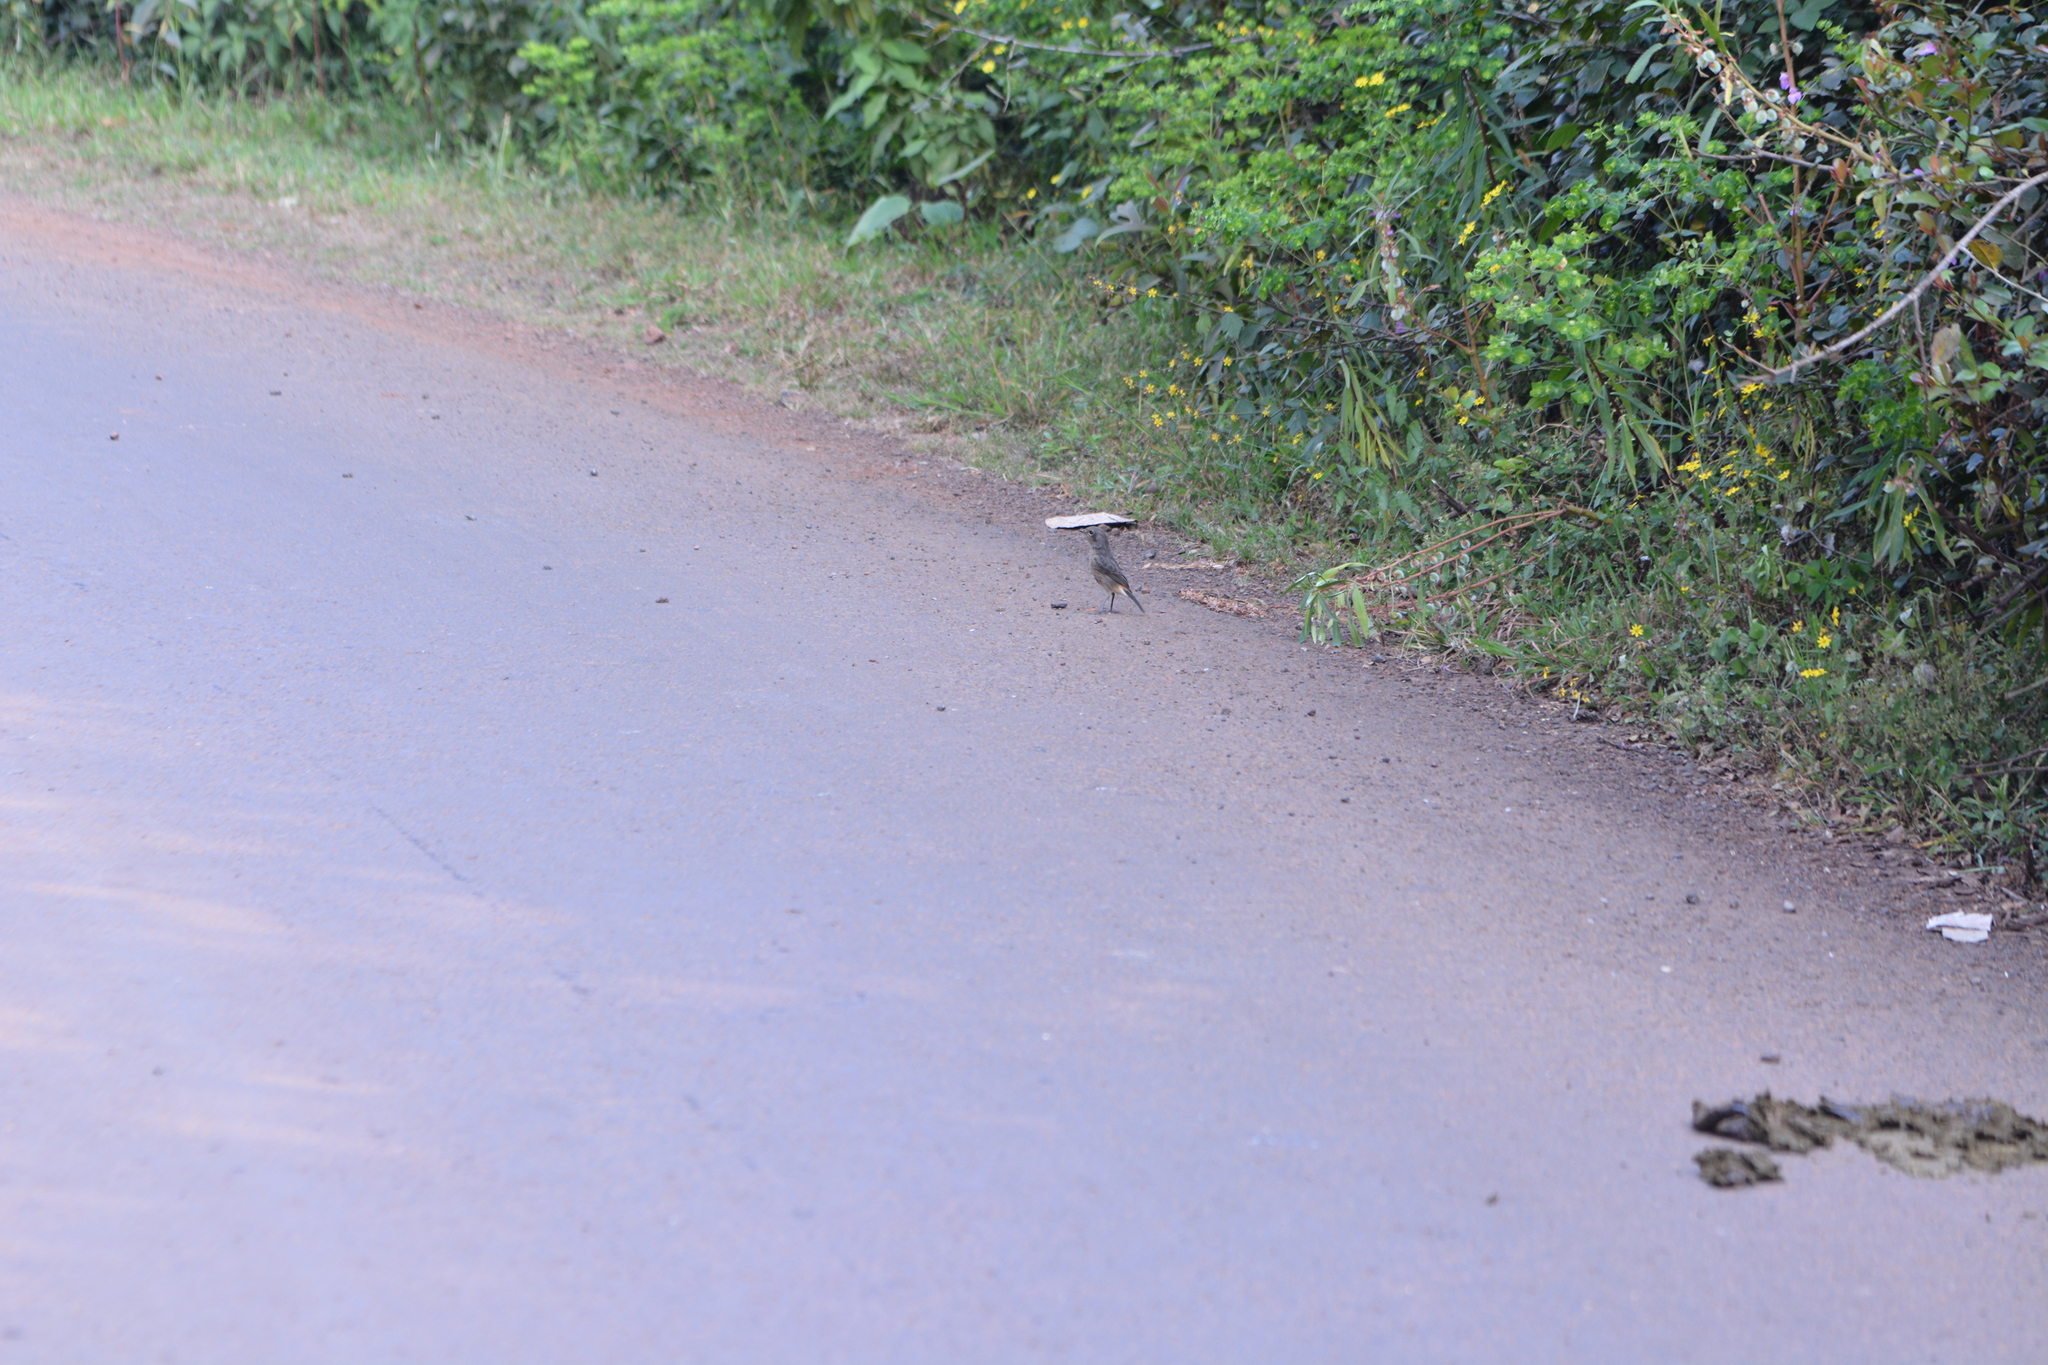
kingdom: Animalia
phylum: Chordata
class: Aves
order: Passeriformes
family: Muscicapidae
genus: Saxicola
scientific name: Saxicola caprata
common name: Pied bush chat
